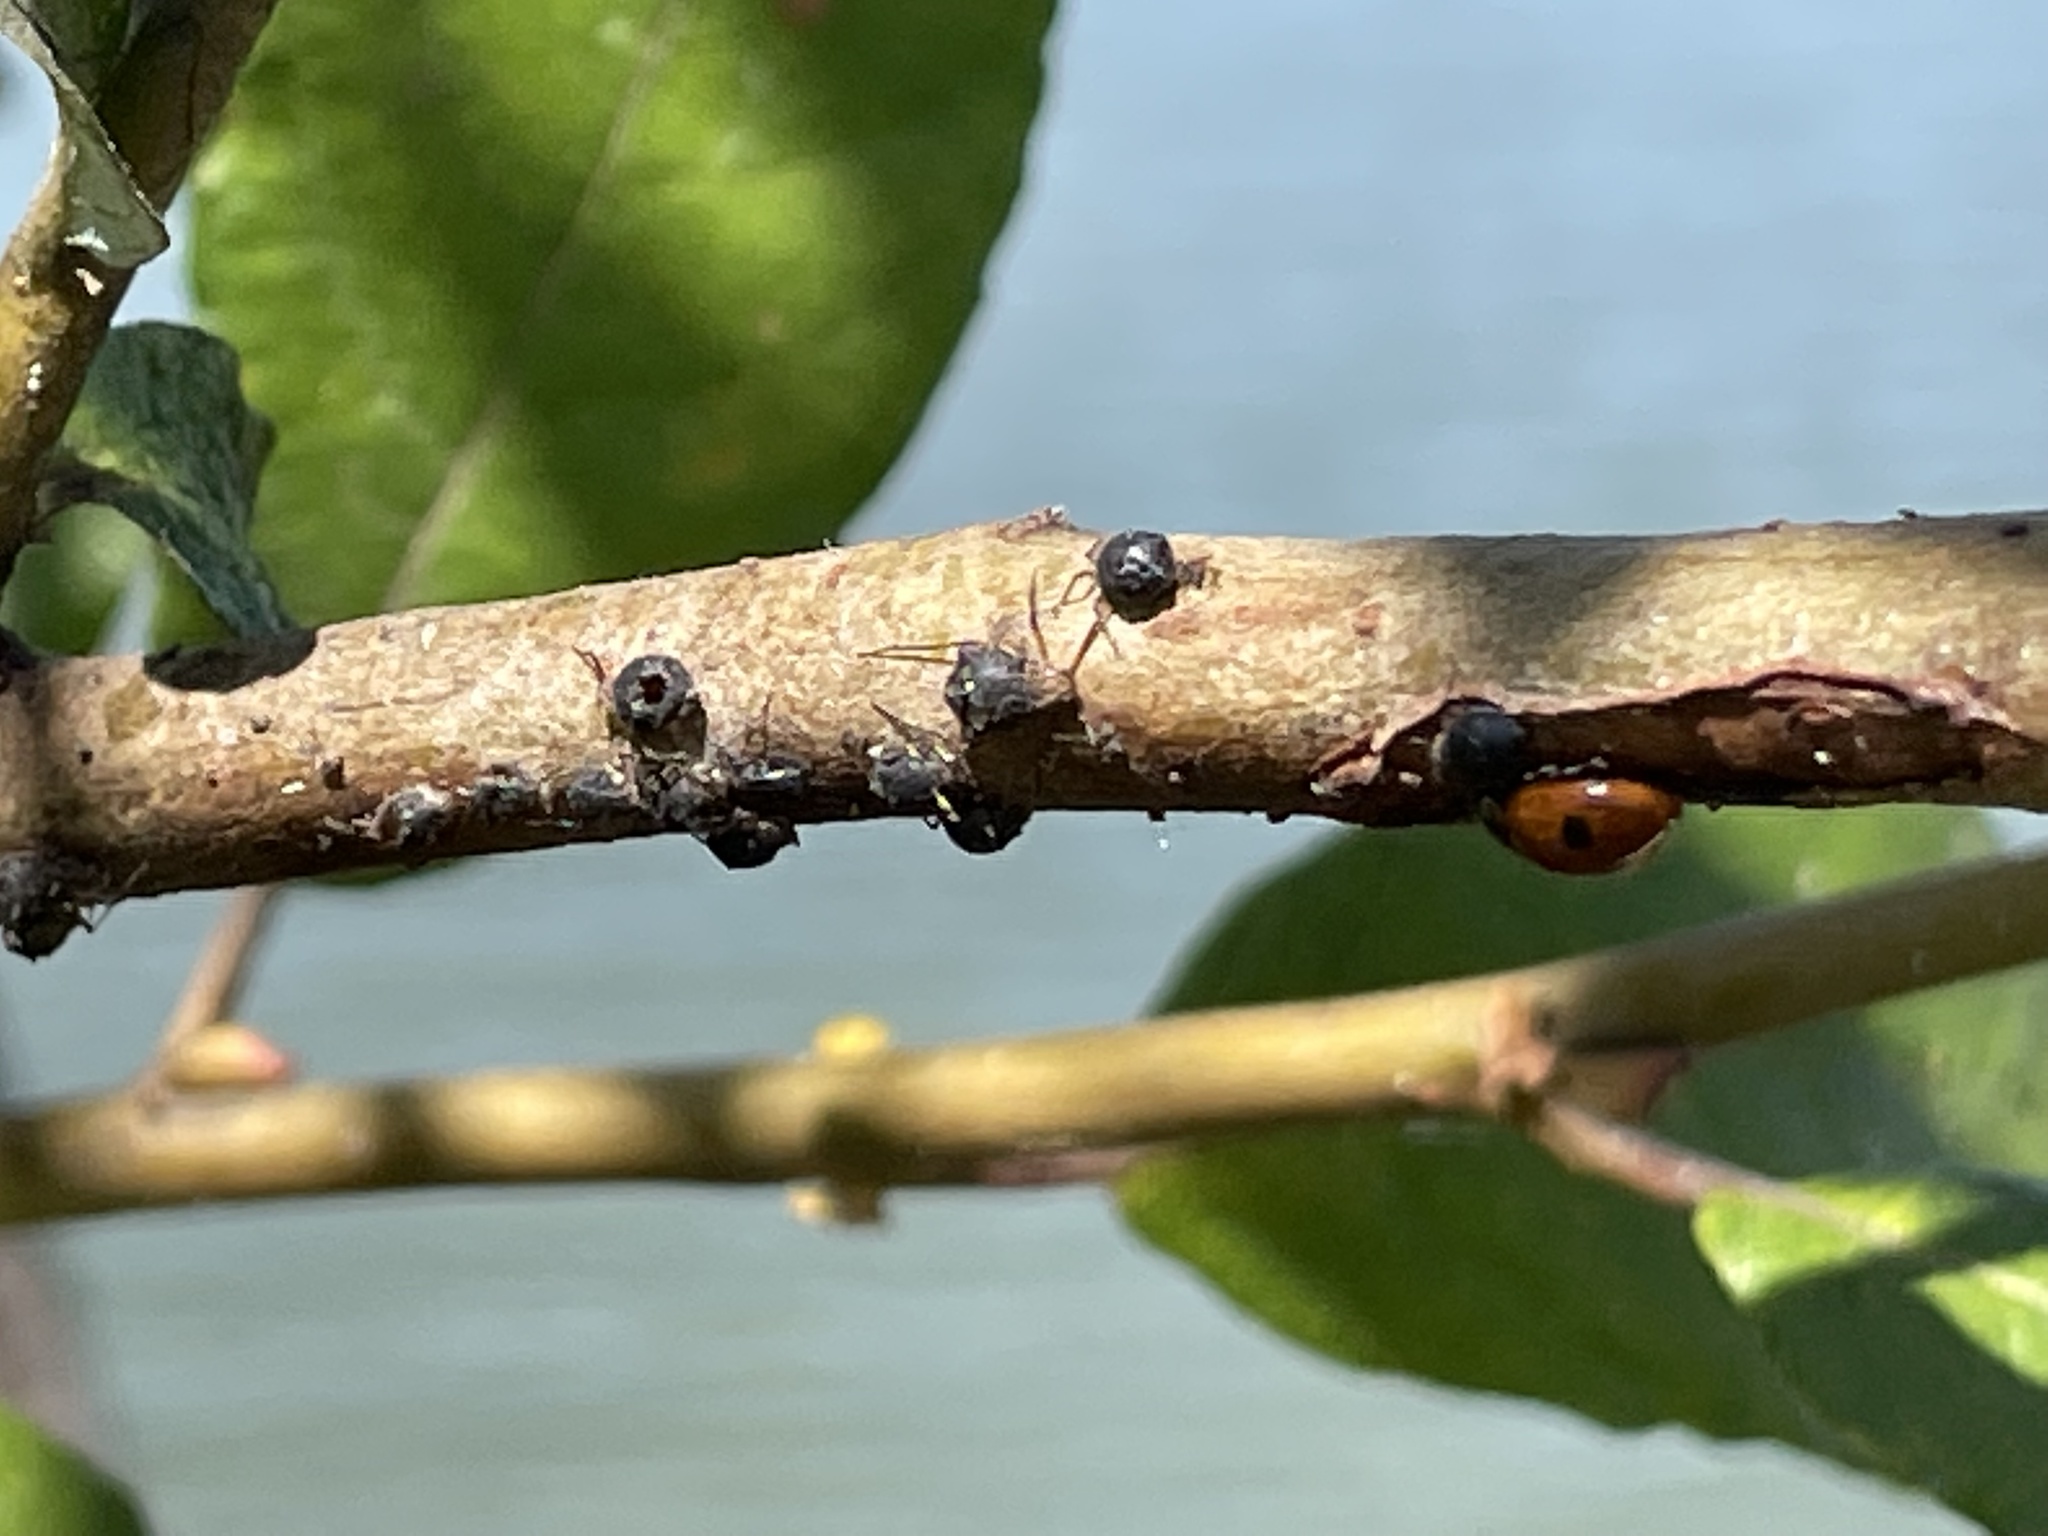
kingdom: Animalia
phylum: Arthropoda
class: Insecta
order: Hymenoptera
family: Braconidae
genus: Pauesia
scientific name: Pauesia nigrovaria
